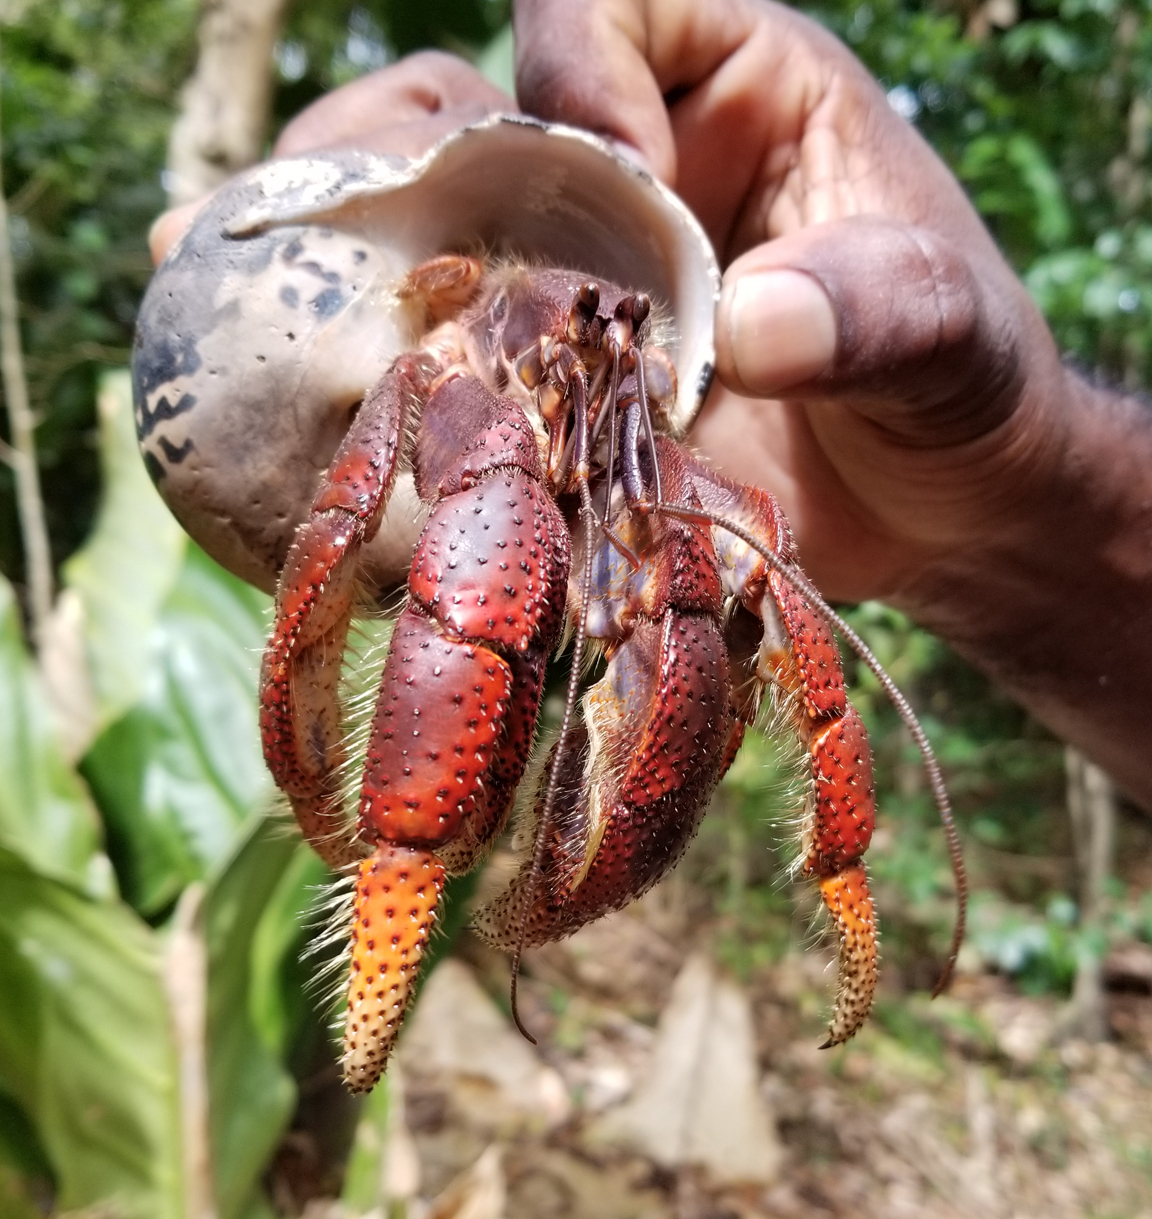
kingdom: Animalia
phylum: Arthropoda
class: Malacostraca
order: Decapoda
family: Coenobitidae
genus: Coenobita
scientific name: Coenobita clypeatus
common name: Caribbean hermit crab
